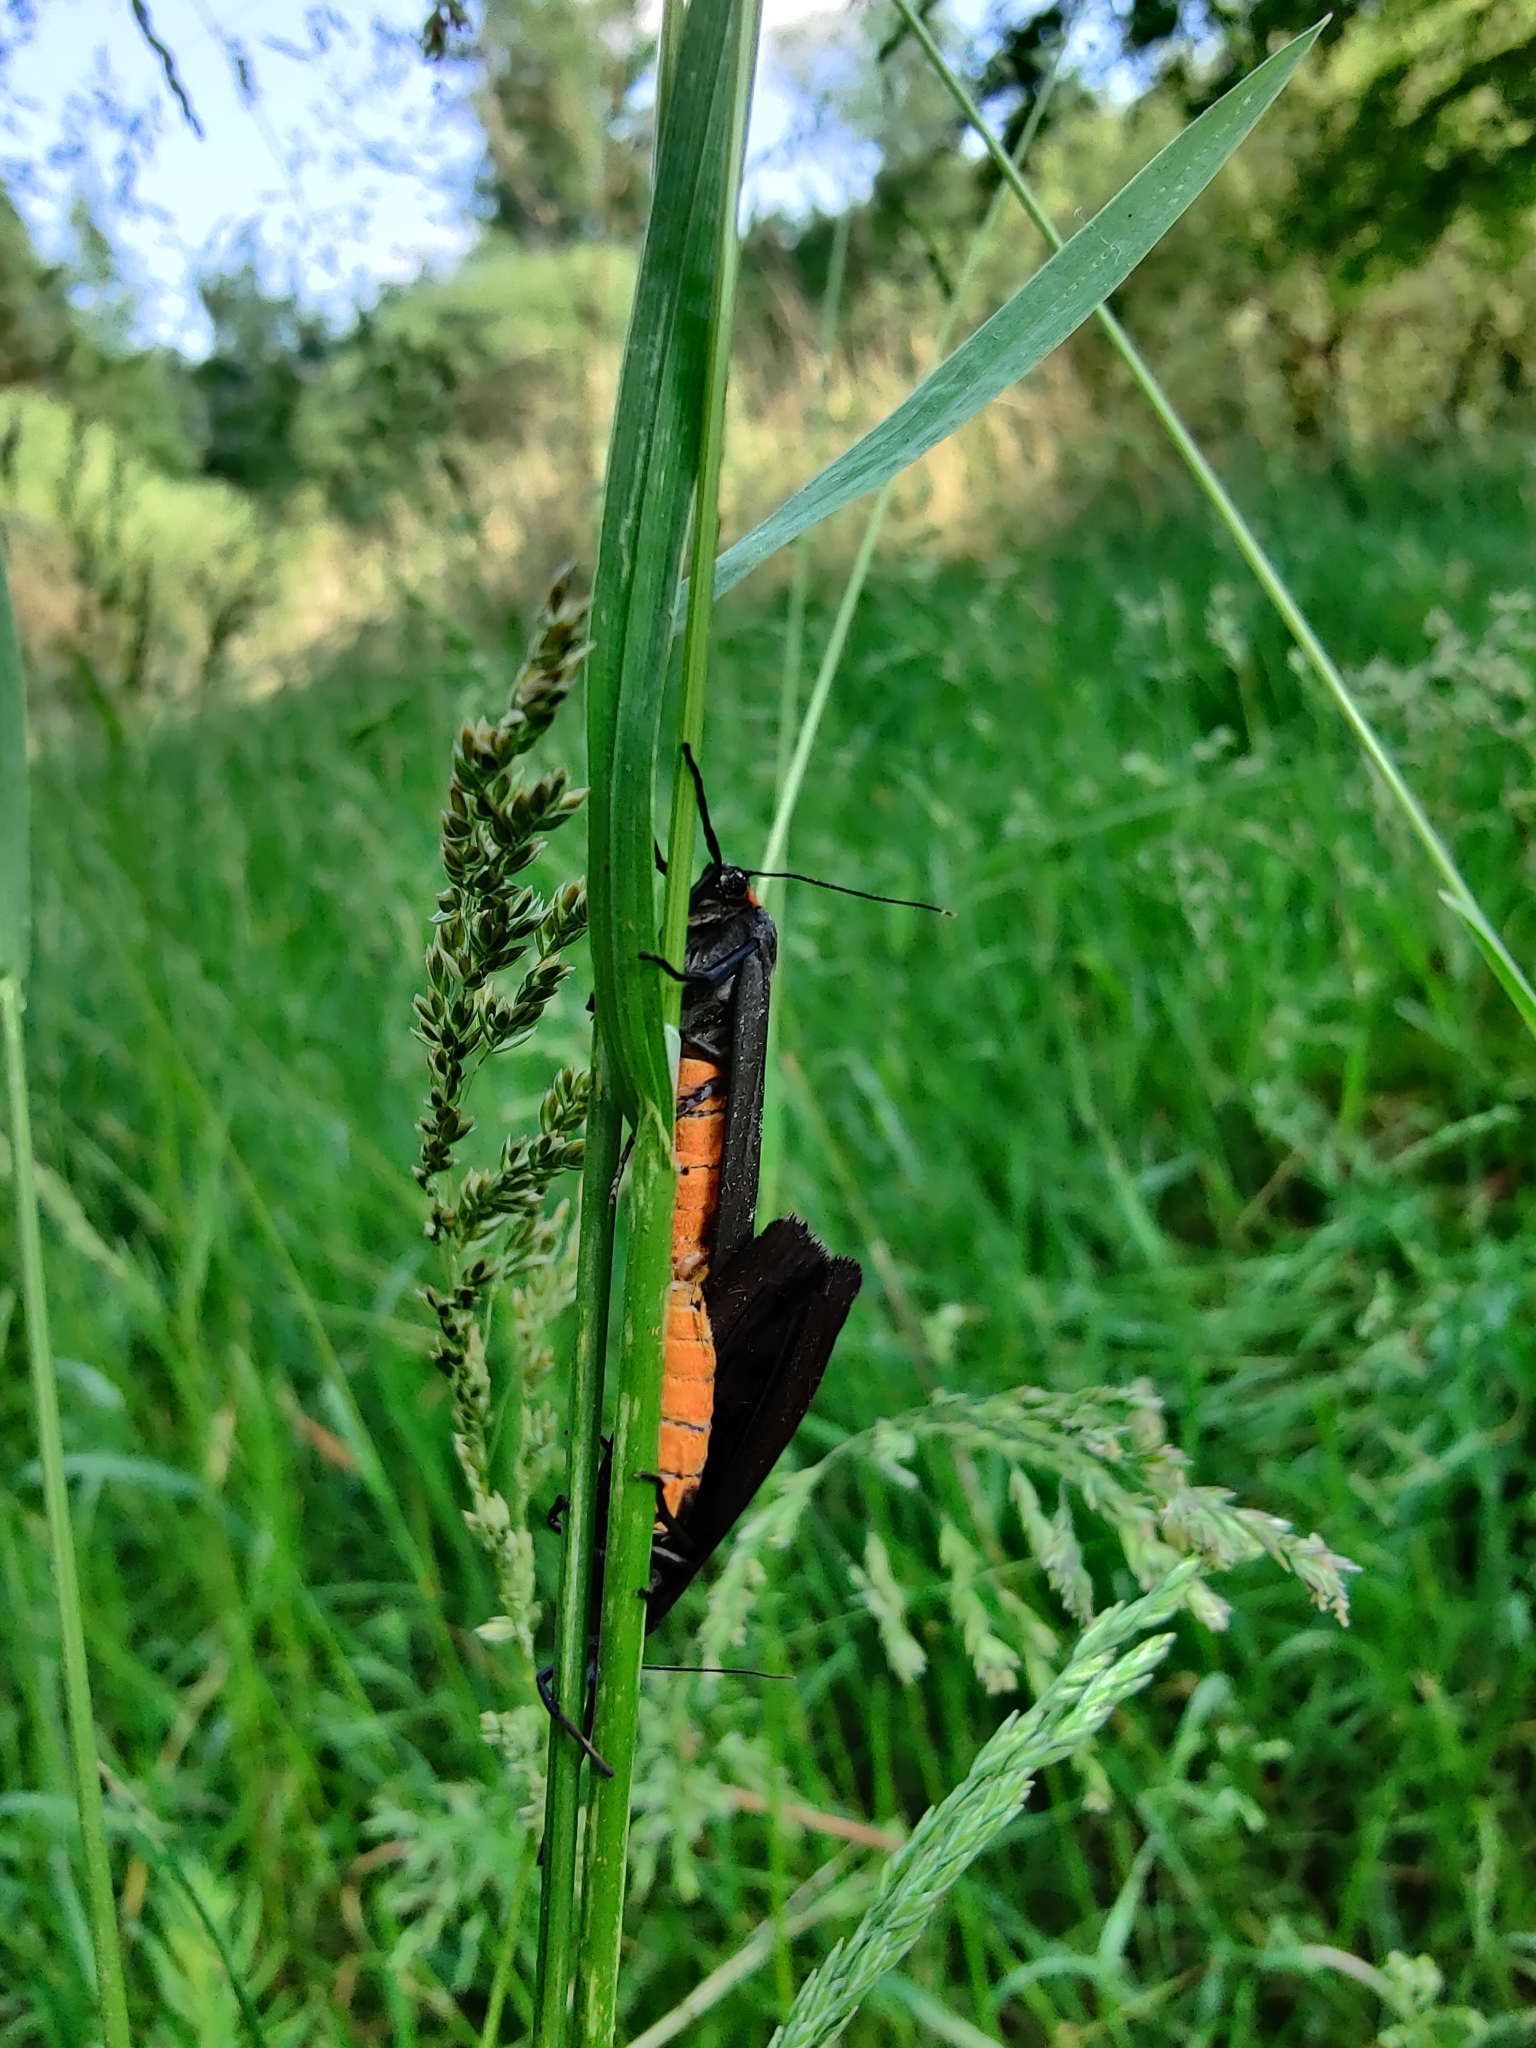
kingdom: Animalia
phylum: Arthropoda
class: Insecta
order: Lepidoptera
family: Erebidae
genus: Atolmis
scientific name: Atolmis rubricollis
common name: Red-necked footman
